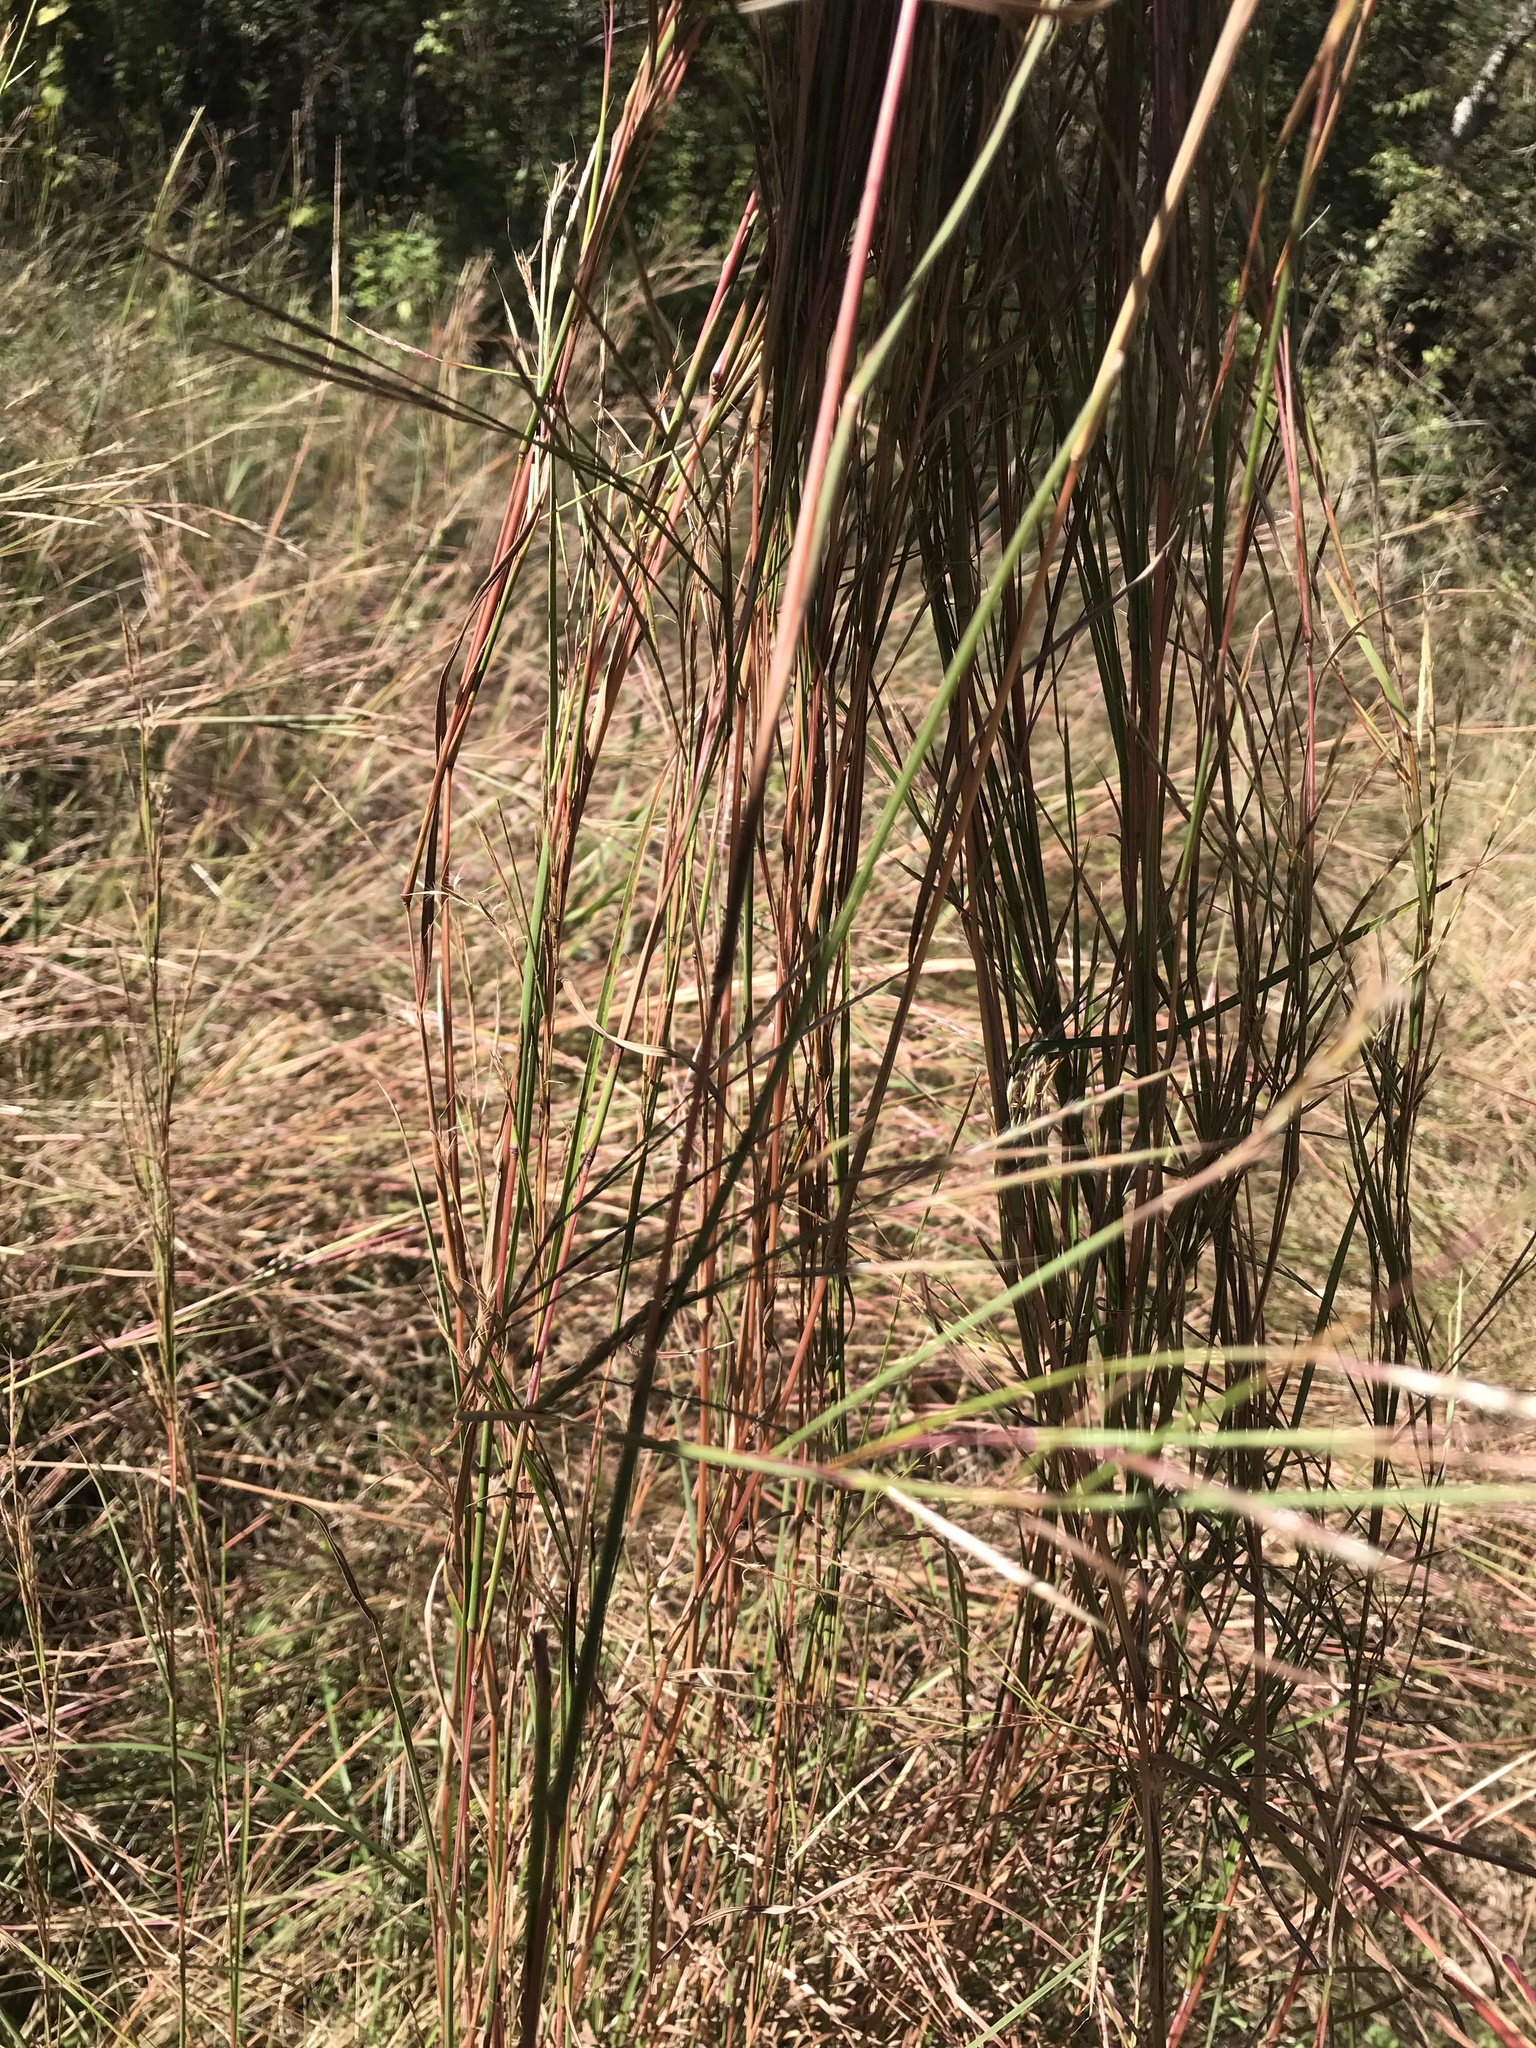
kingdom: Plantae
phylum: Tracheophyta
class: Liliopsida
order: Poales
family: Poaceae
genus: Schizachyrium
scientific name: Schizachyrium scoparium
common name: Little bluestem
